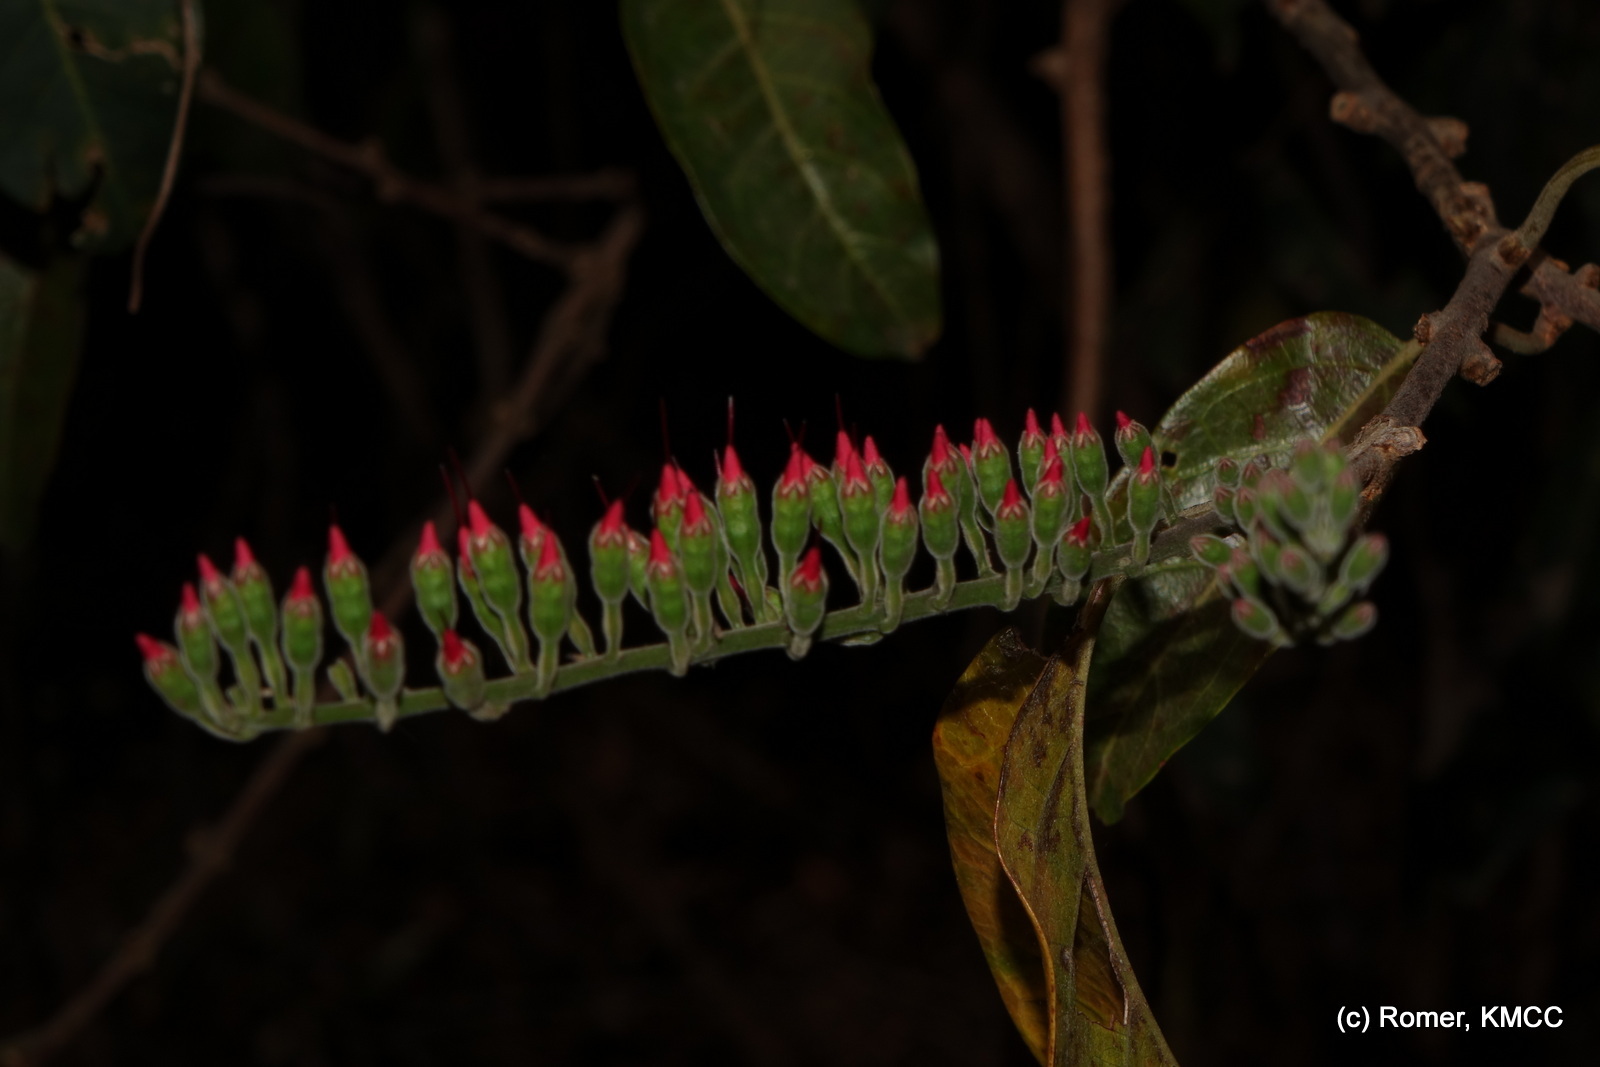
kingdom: Plantae
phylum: Tracheophyta
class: Magnoliopsida
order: Myrtales
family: Combretaceae
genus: Combretum
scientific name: Combretum coccineum
